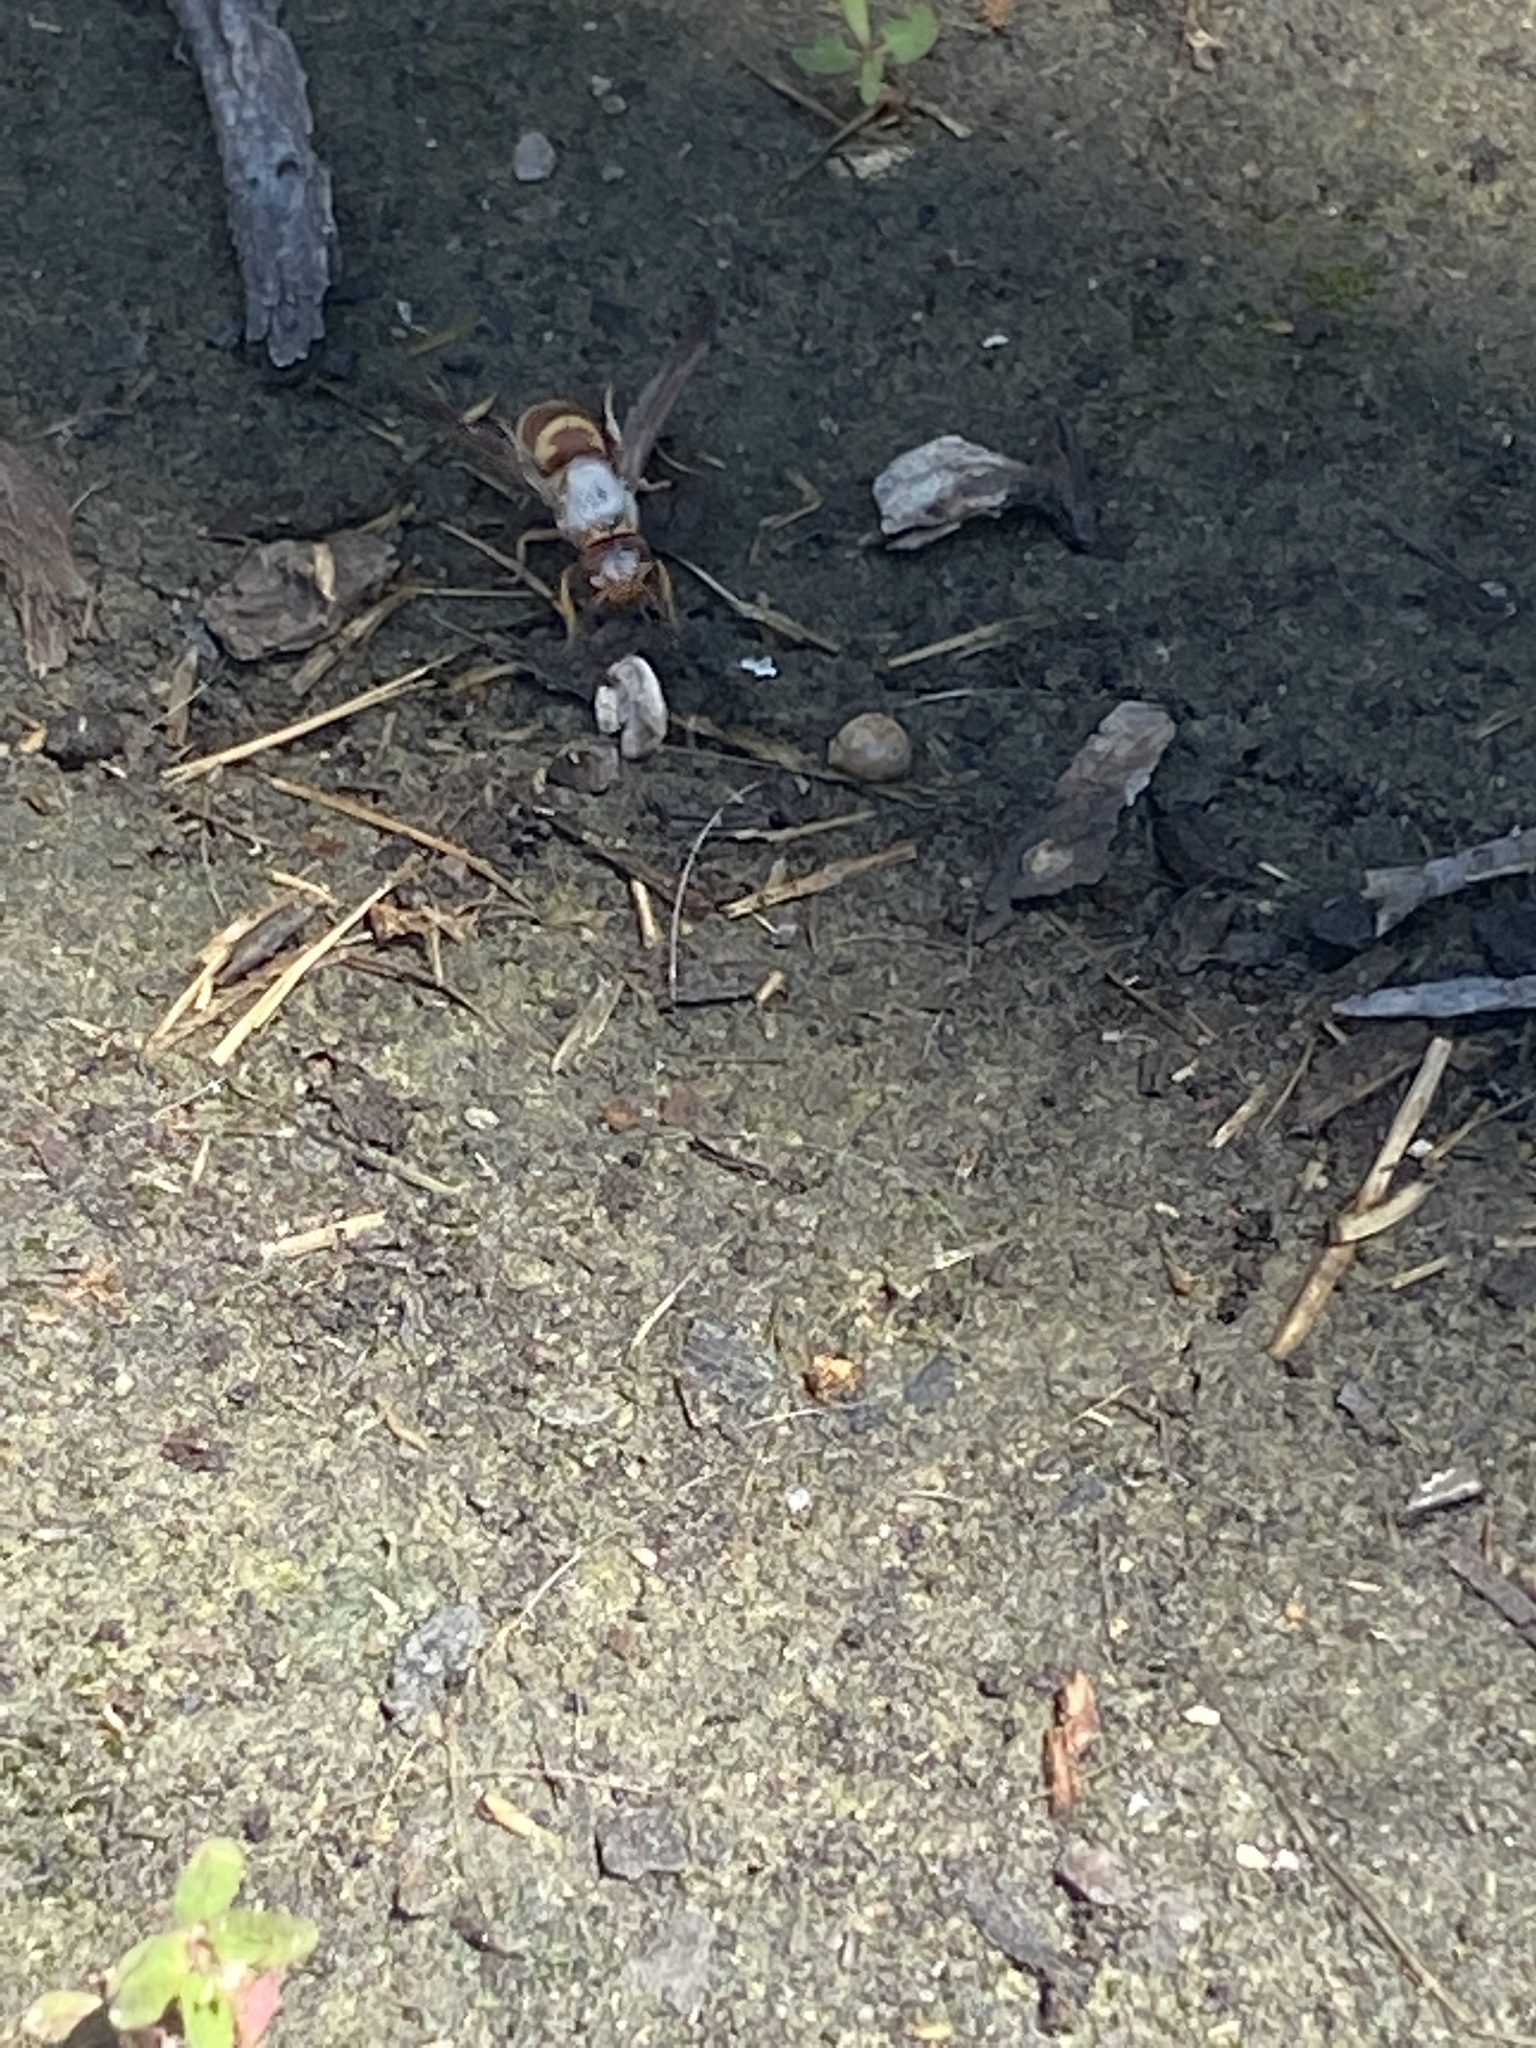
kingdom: Animalia
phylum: Arthropoda
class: Insecta
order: Hymenoptera
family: Eumenidae
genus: Euodynerus
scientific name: Euodynerus
